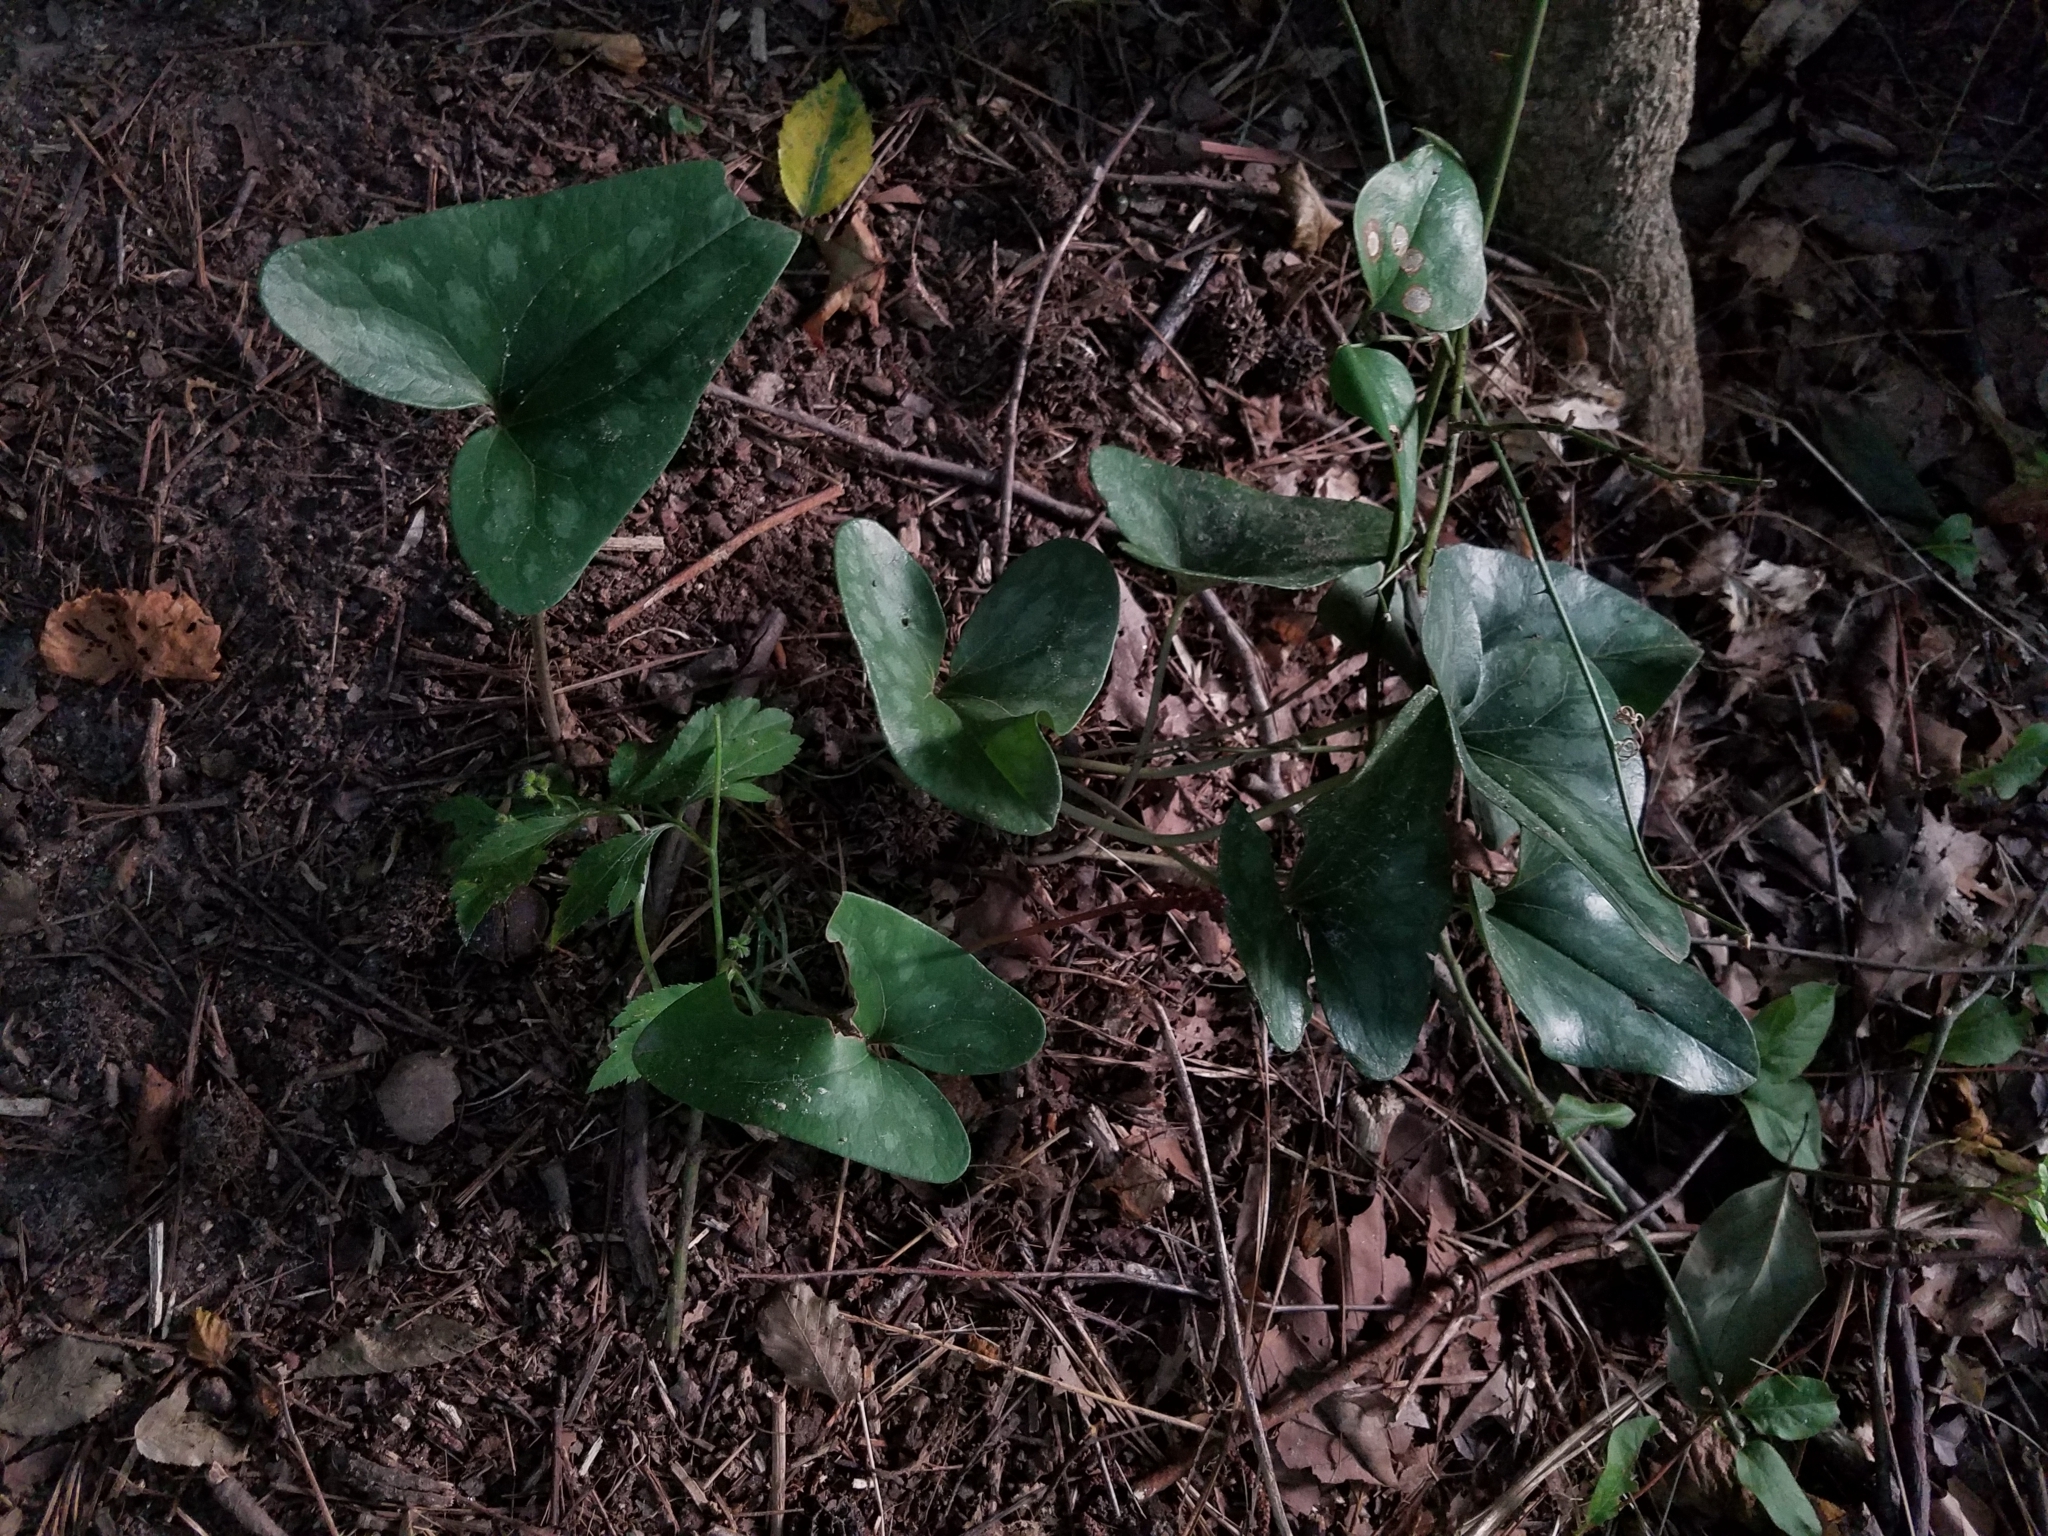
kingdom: Plantae
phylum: Tracheophyta
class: Magnoliopsida
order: Piperales
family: Aristolochiaceae
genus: Hexastylis
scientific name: Hexastylis arifolia
